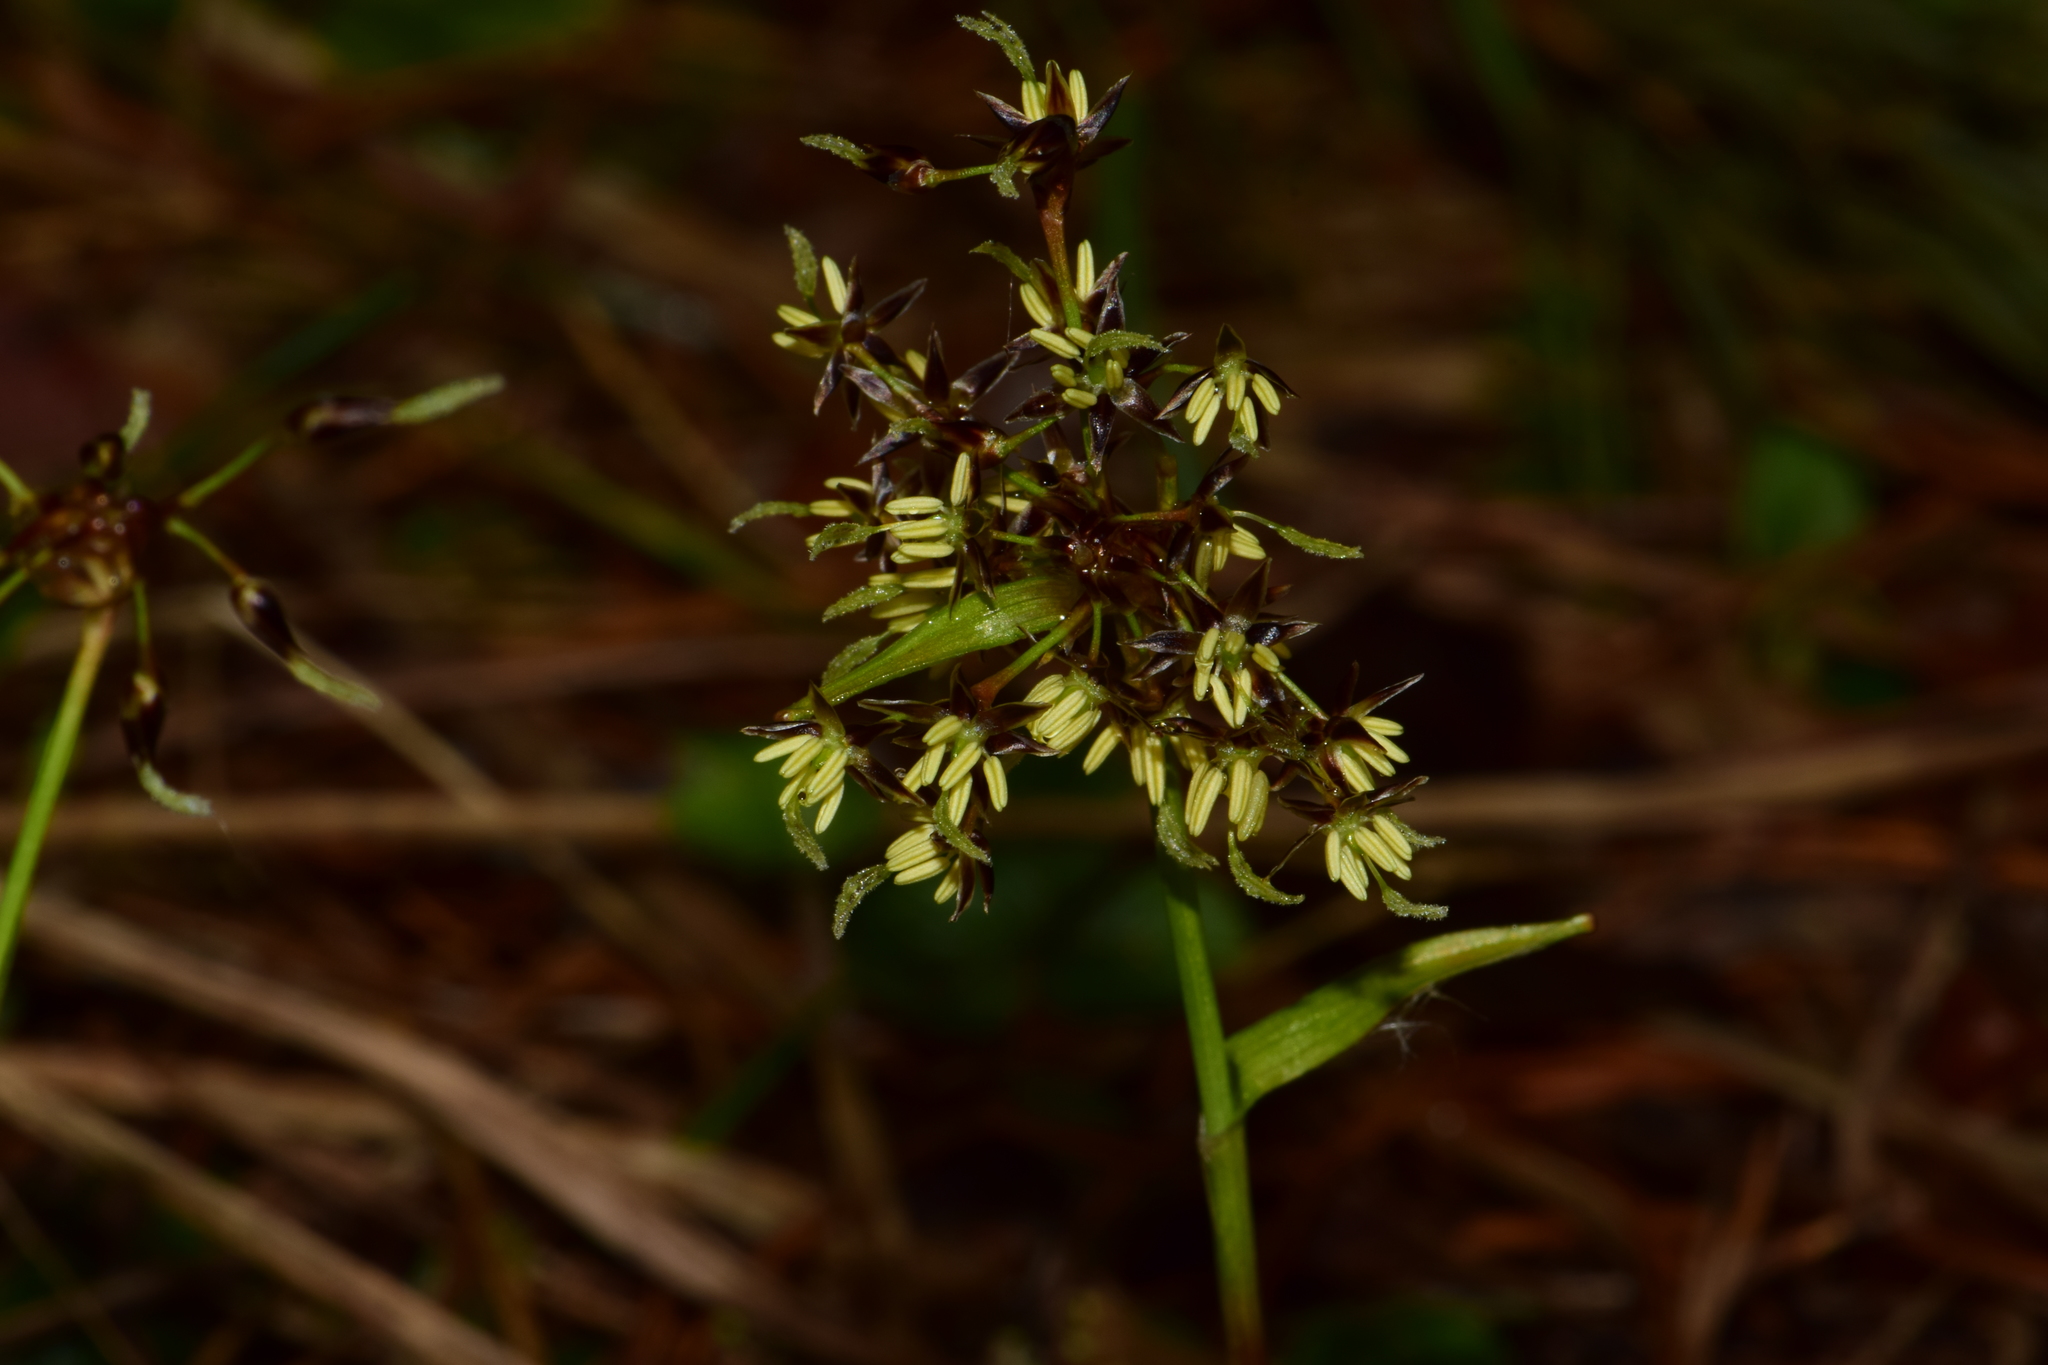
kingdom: Plantae
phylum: Tracheophyta
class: Liliopsida
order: Poales
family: Juncaceae
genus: Luzula
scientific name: Luzula pilosa
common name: Hairy wood-rush
